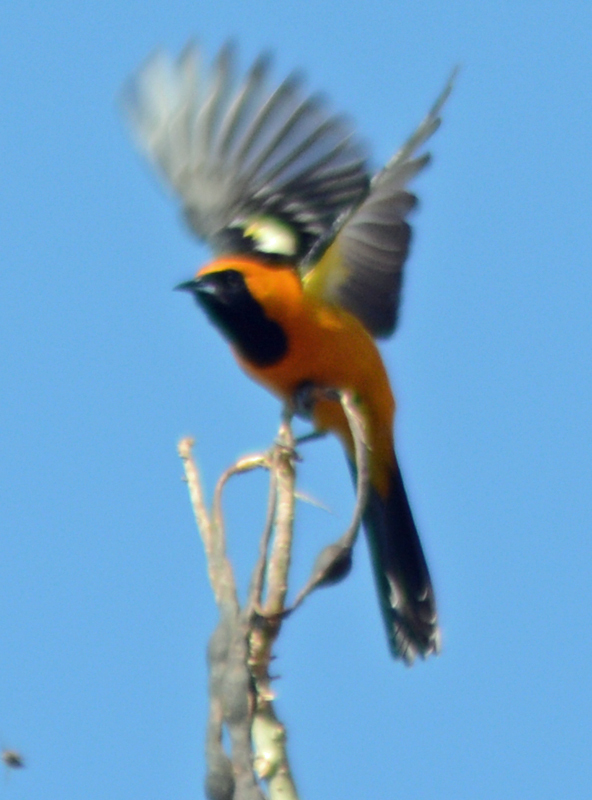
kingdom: Animalia
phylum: Chordata
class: Aves
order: Passeriformes
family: Icteridae
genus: Icterus
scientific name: Icterus cucullatus
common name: Hooded oriole
